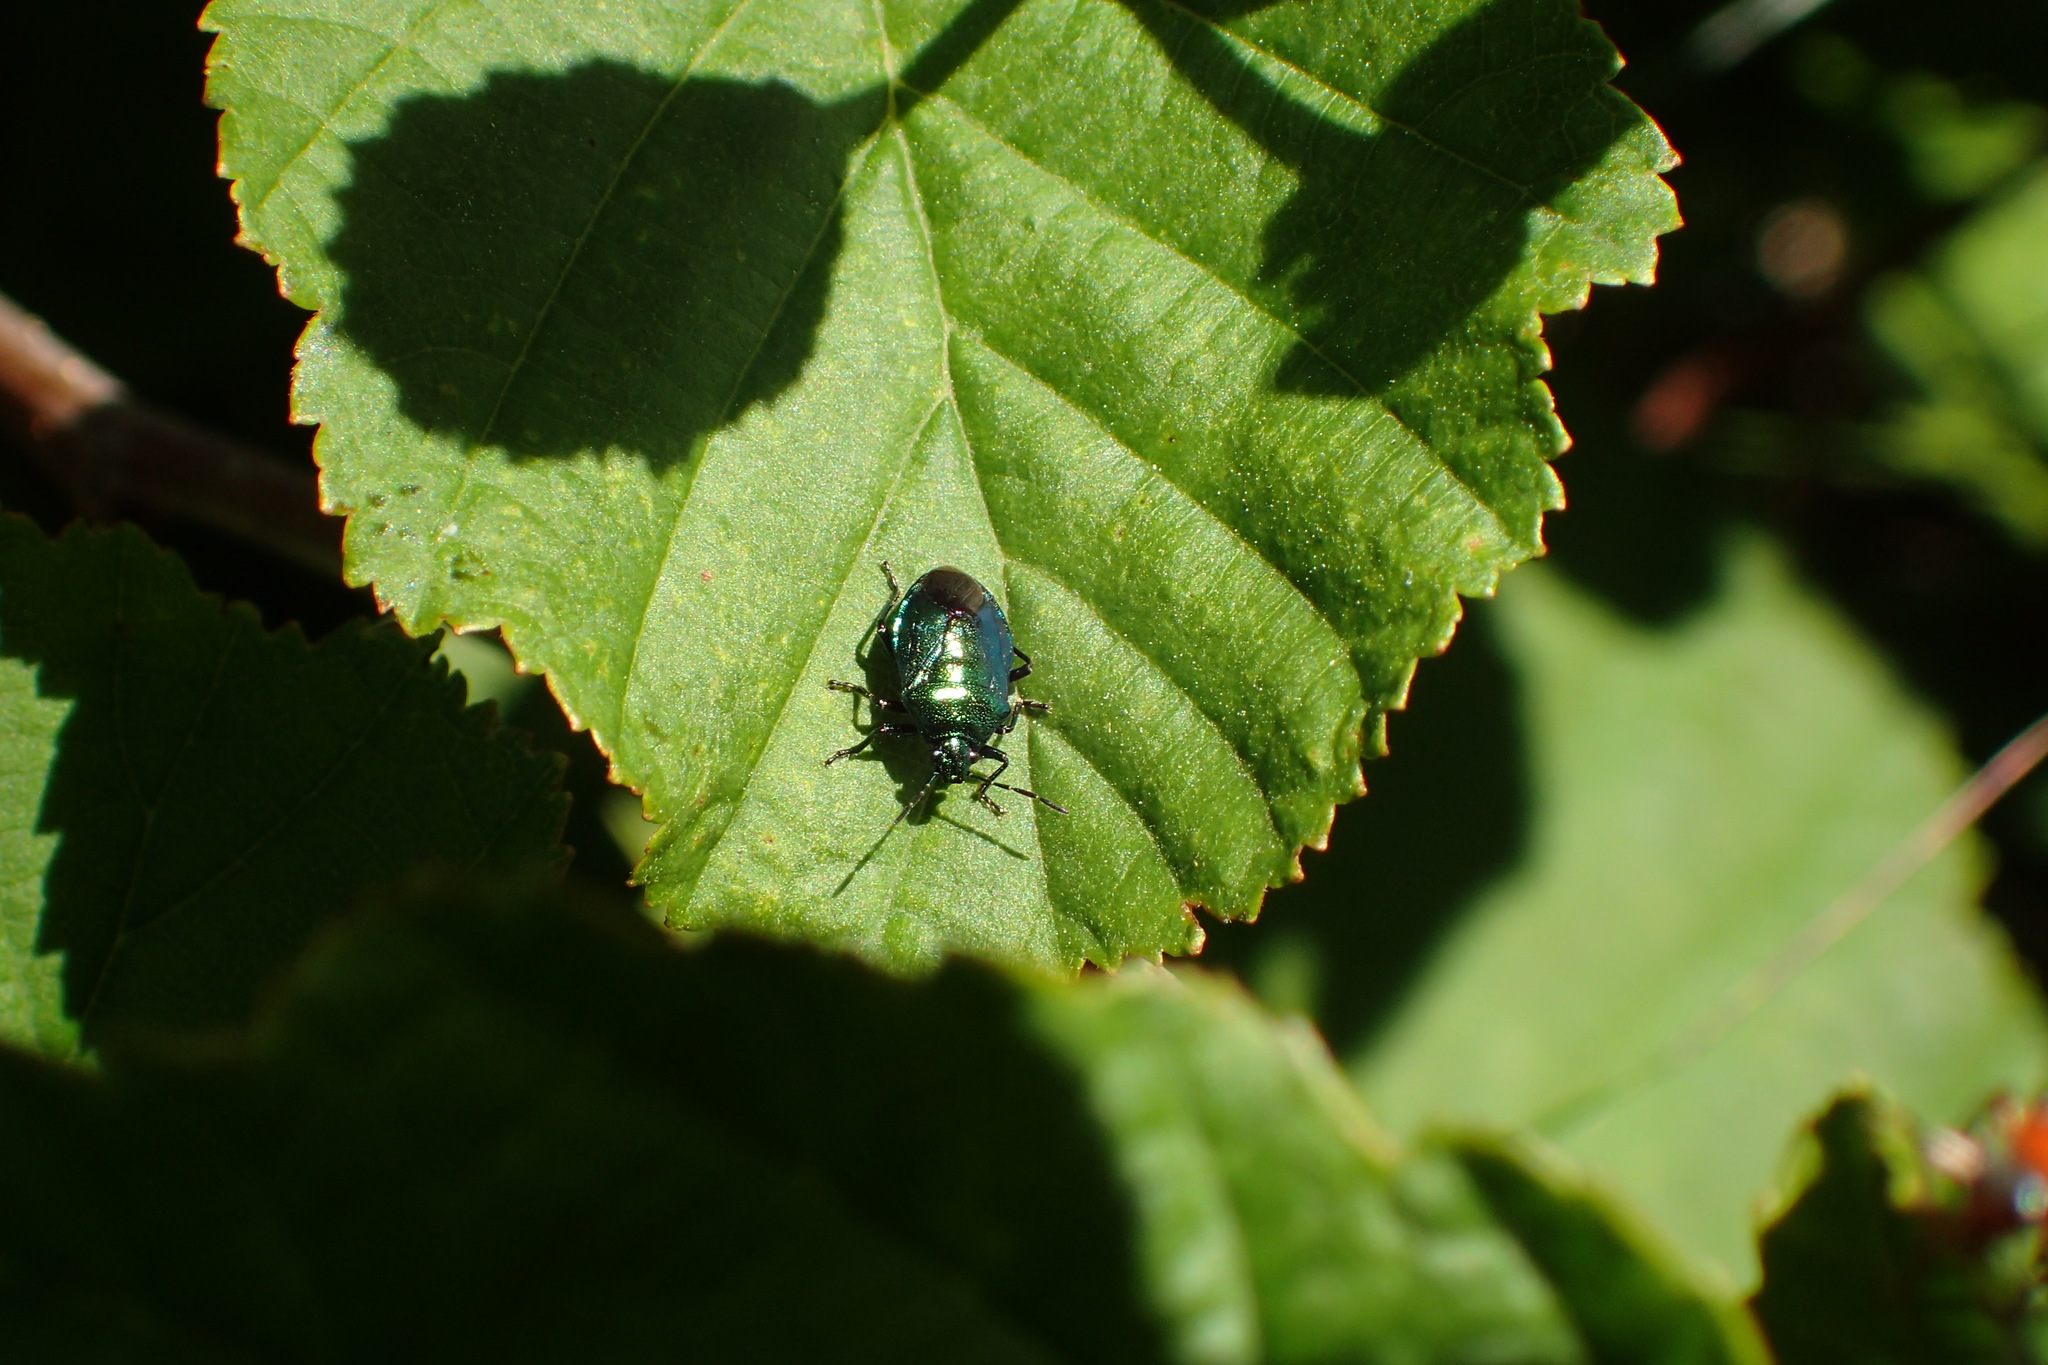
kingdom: Animalia
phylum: Arthropoda
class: Insecta
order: Hemiptera
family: Pentatomidae
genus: Zicrona
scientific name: Zicrona caerulea
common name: Blue shieldbug
